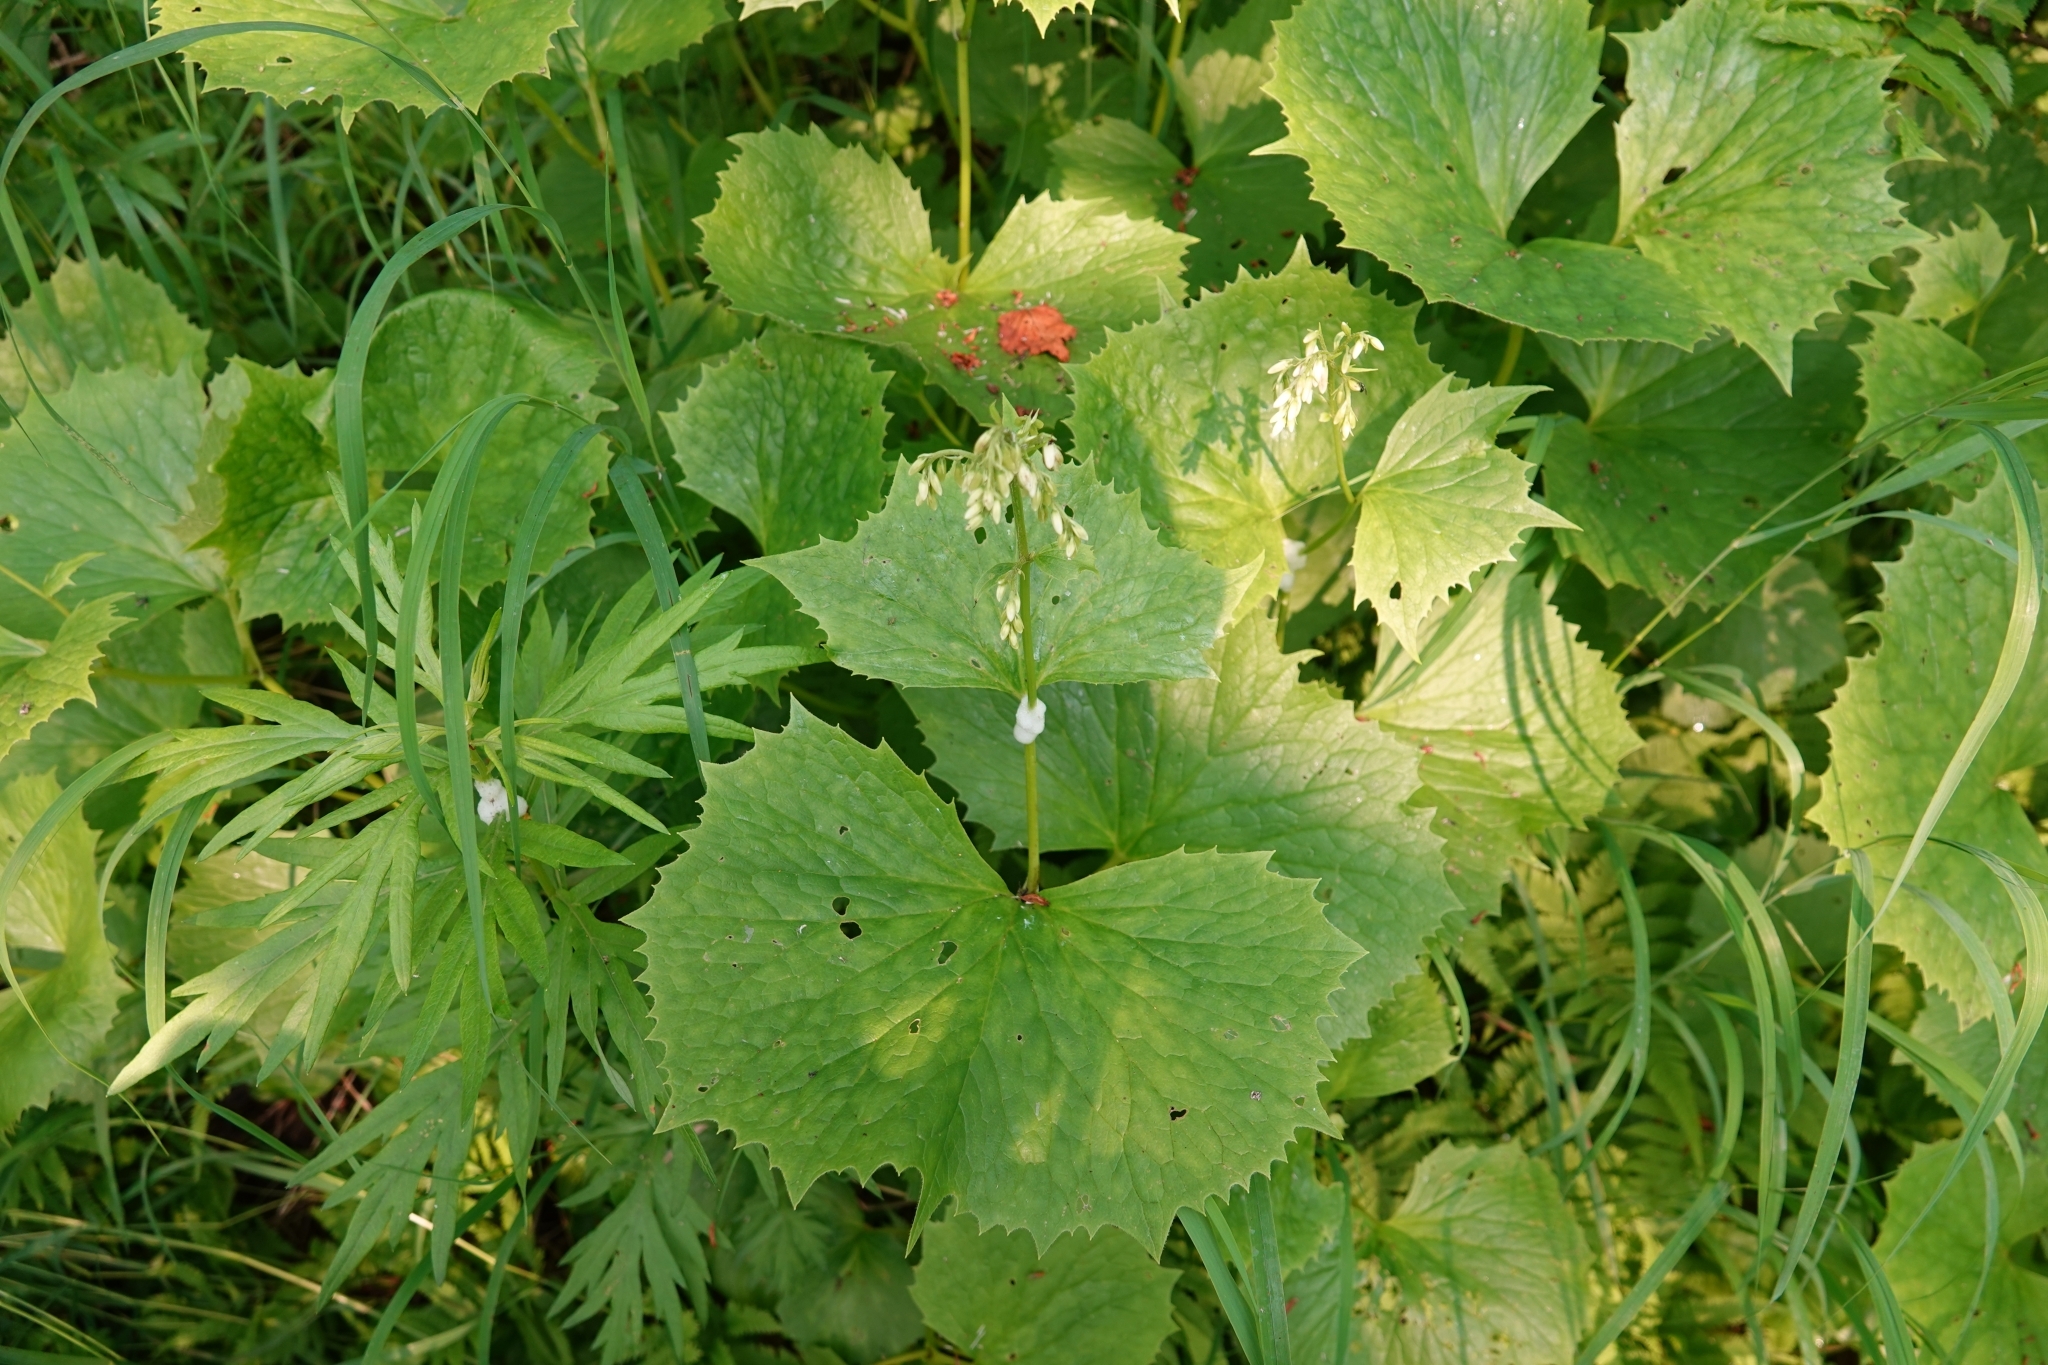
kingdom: Plantae
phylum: Tracheophyta
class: Magnoliopsida
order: Asterales
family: Asteraceae
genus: Parasenecio
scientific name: Parasenecio kamtschaticus
